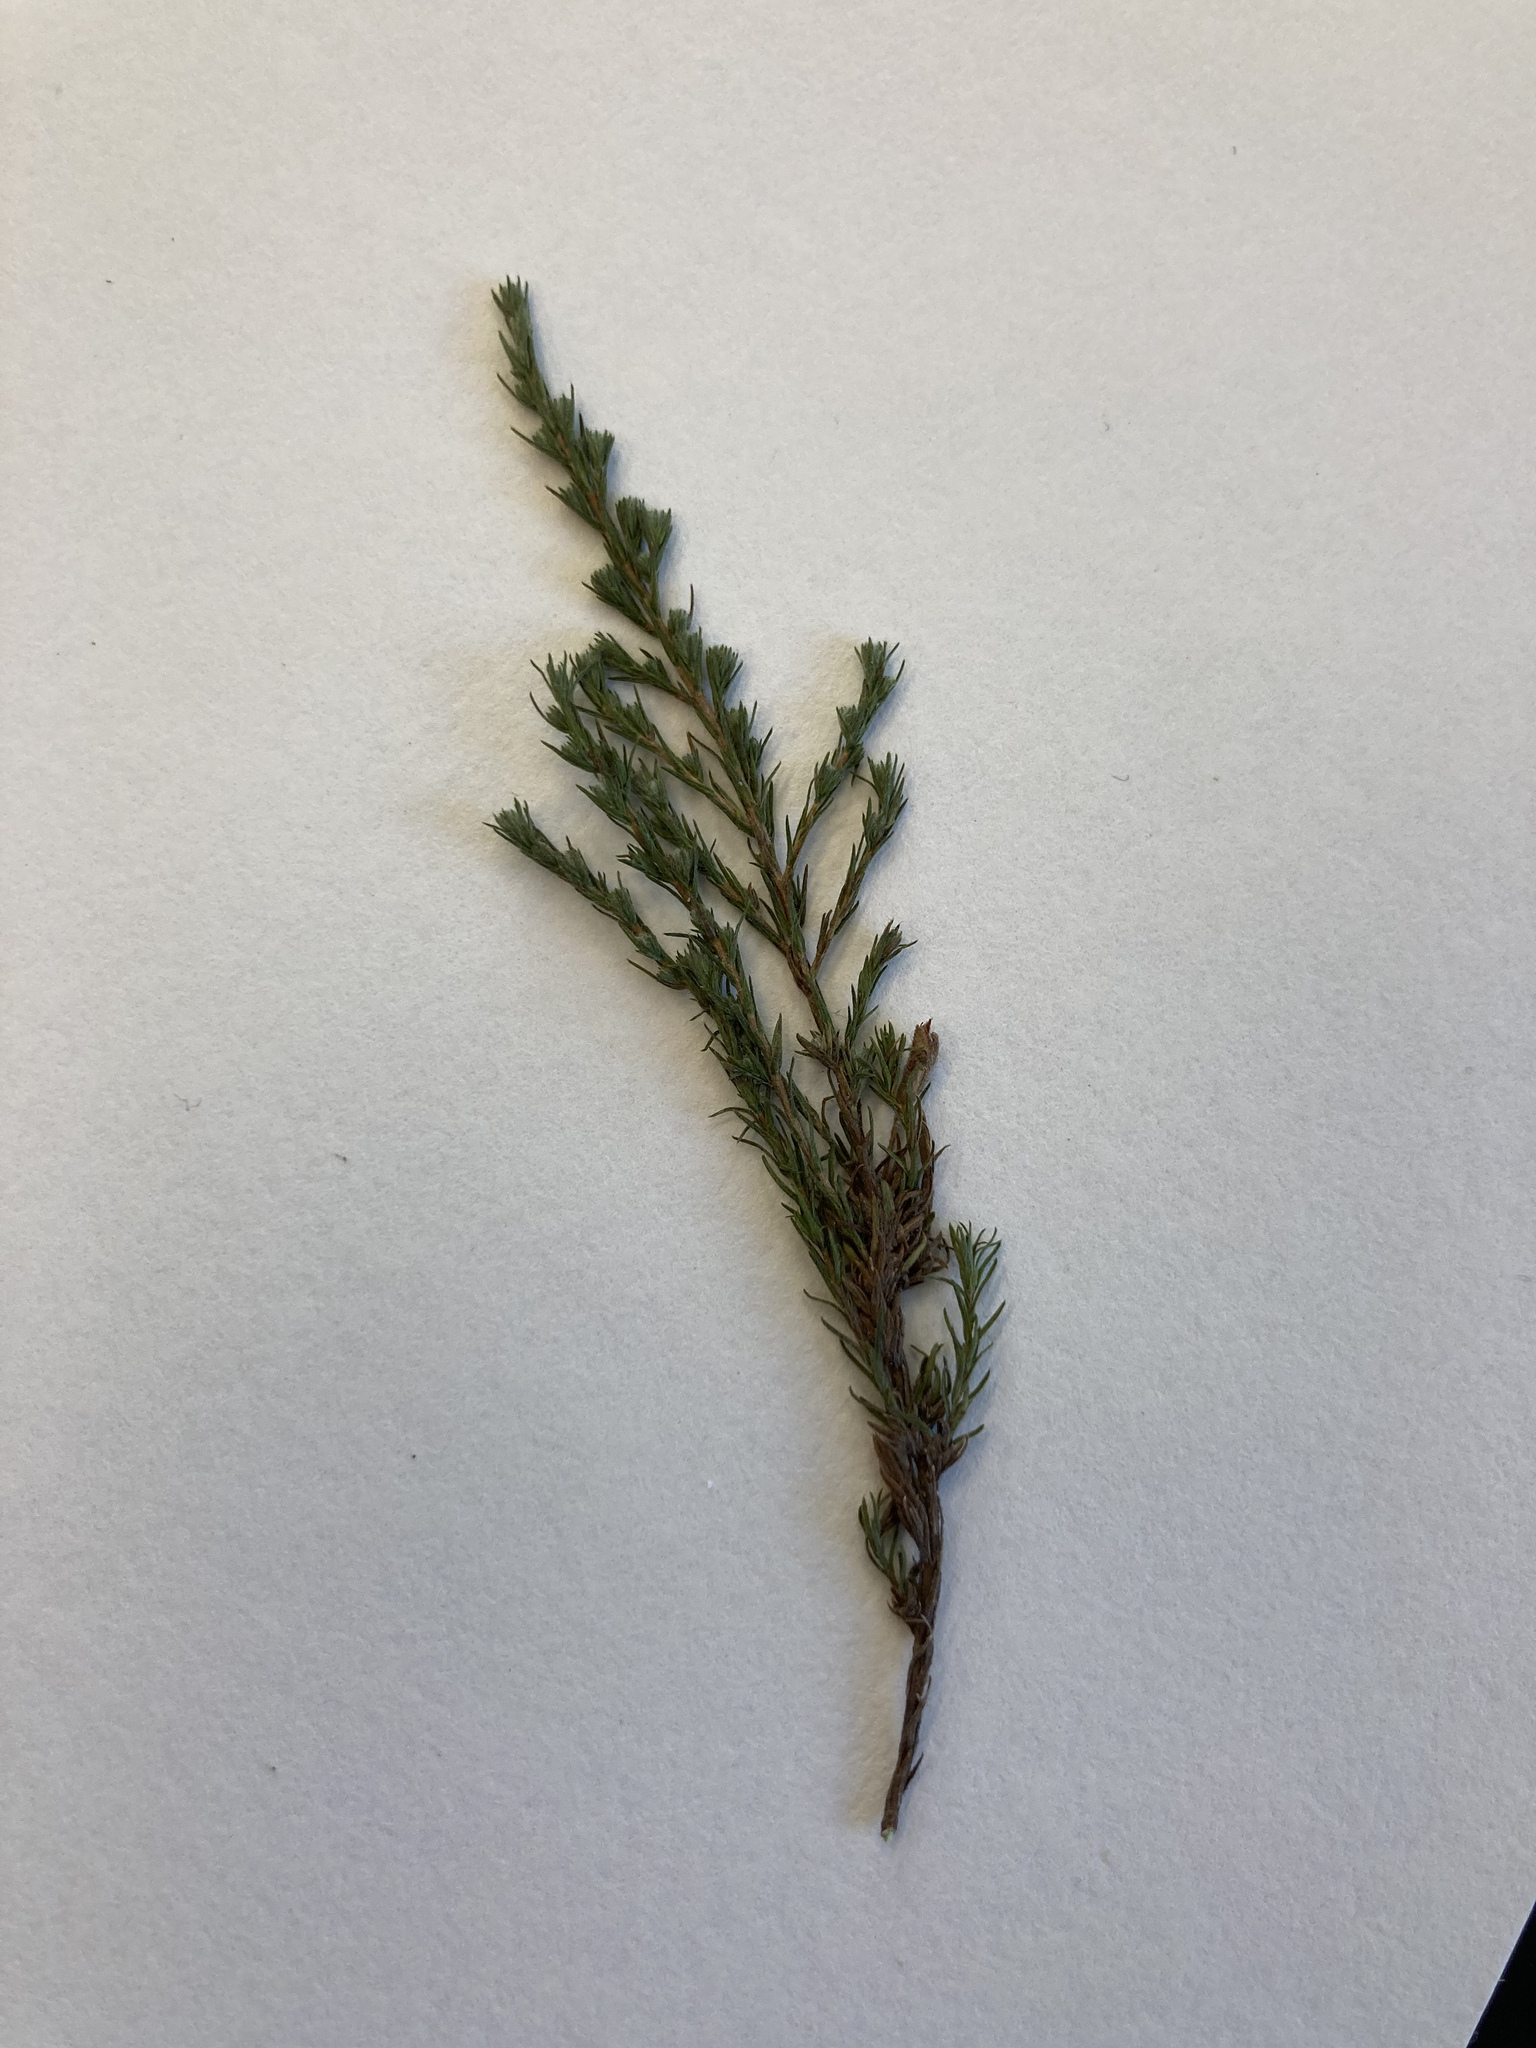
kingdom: Plantae
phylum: Tracheophyta
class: Magnoliopsida
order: Malvales
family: Cistaceae
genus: Hudsonia
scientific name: Hudsonia ericoides
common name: Golden-heather
